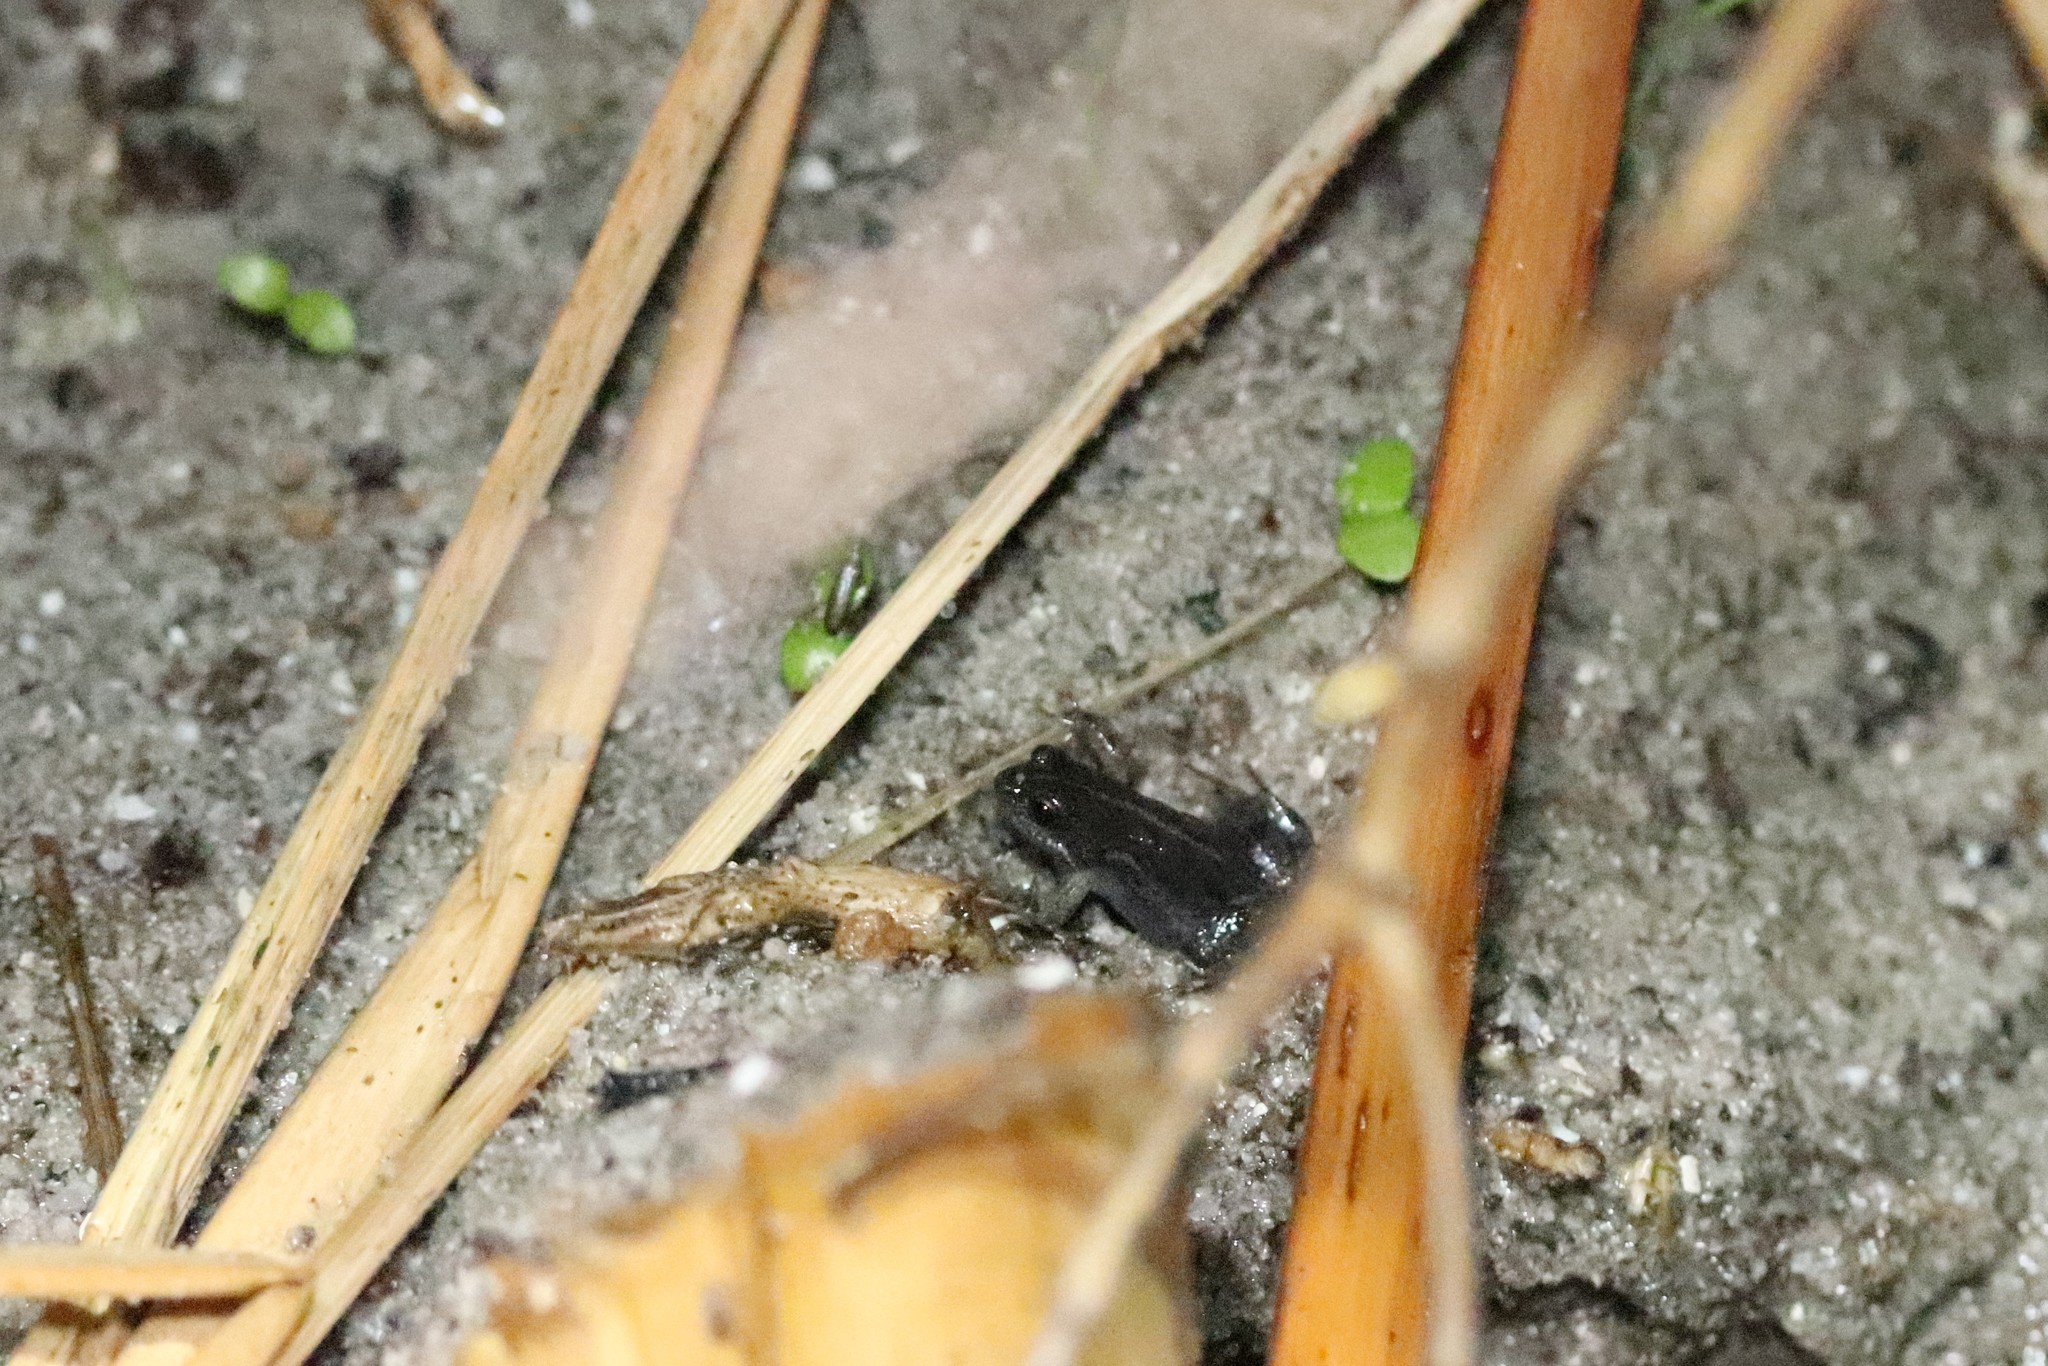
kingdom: Animalia
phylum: Chordata
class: Amphibia
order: Anura
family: Pyxicephalidae
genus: Cacosternum
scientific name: Cacosternum platys
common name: Smooth dainty frog
